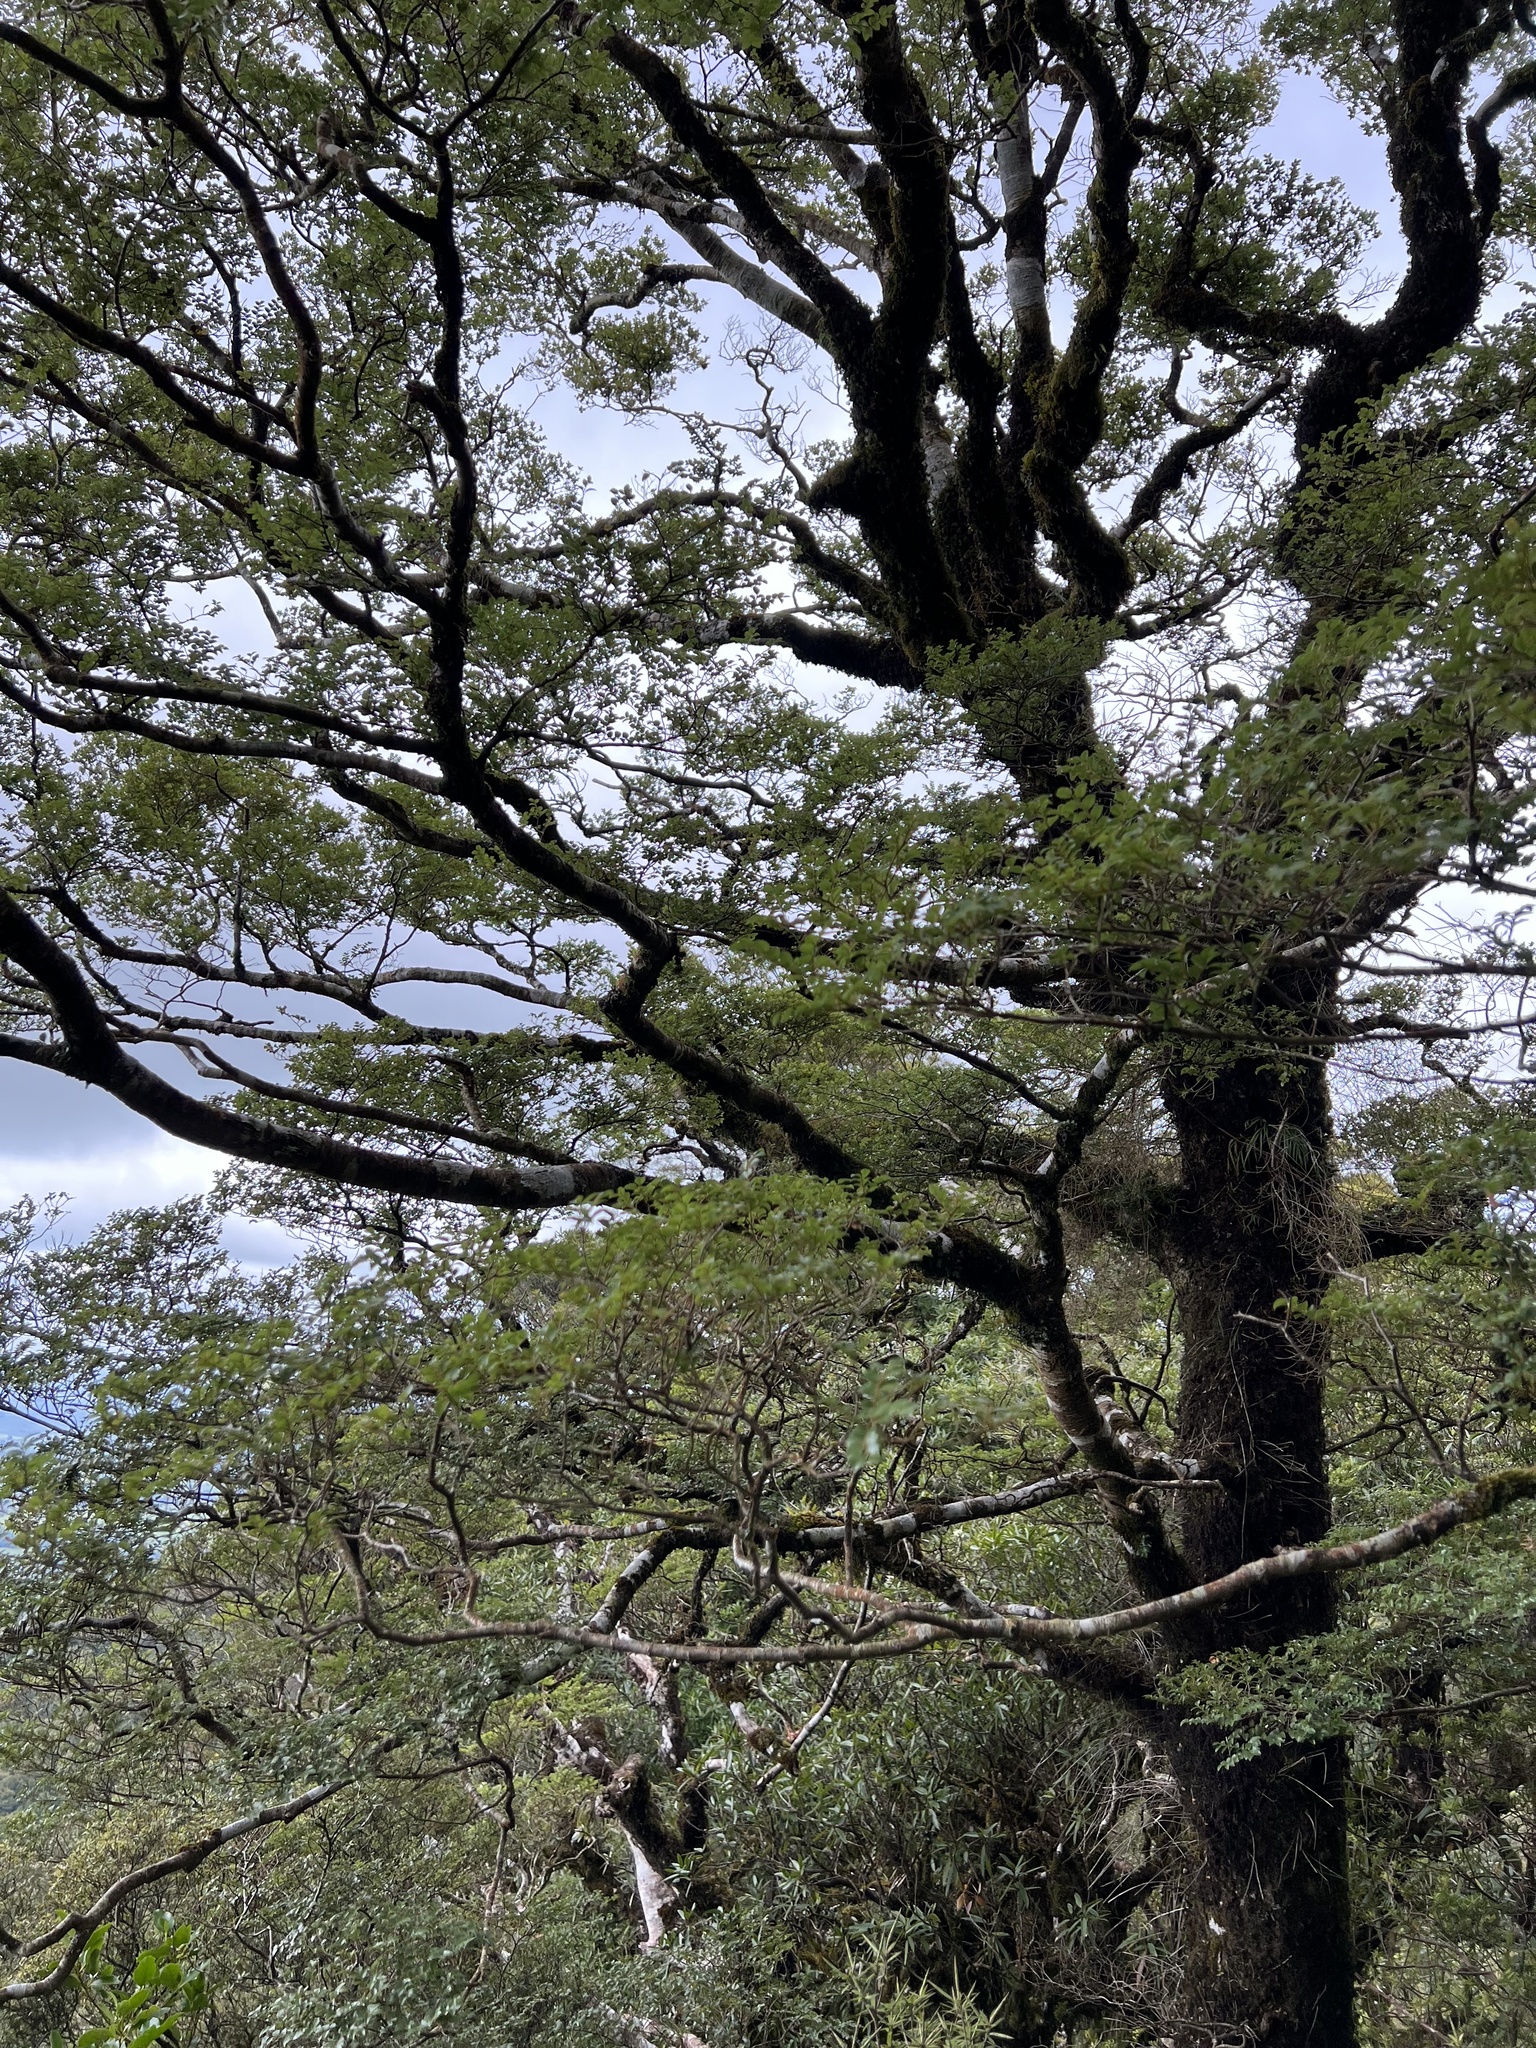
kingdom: Plantae
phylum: Tracheophyta
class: Magnoliopsida
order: Fagales
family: Nothofagaceae
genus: Nothofagus
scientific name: Nothofagus menziesii
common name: Silver beech
